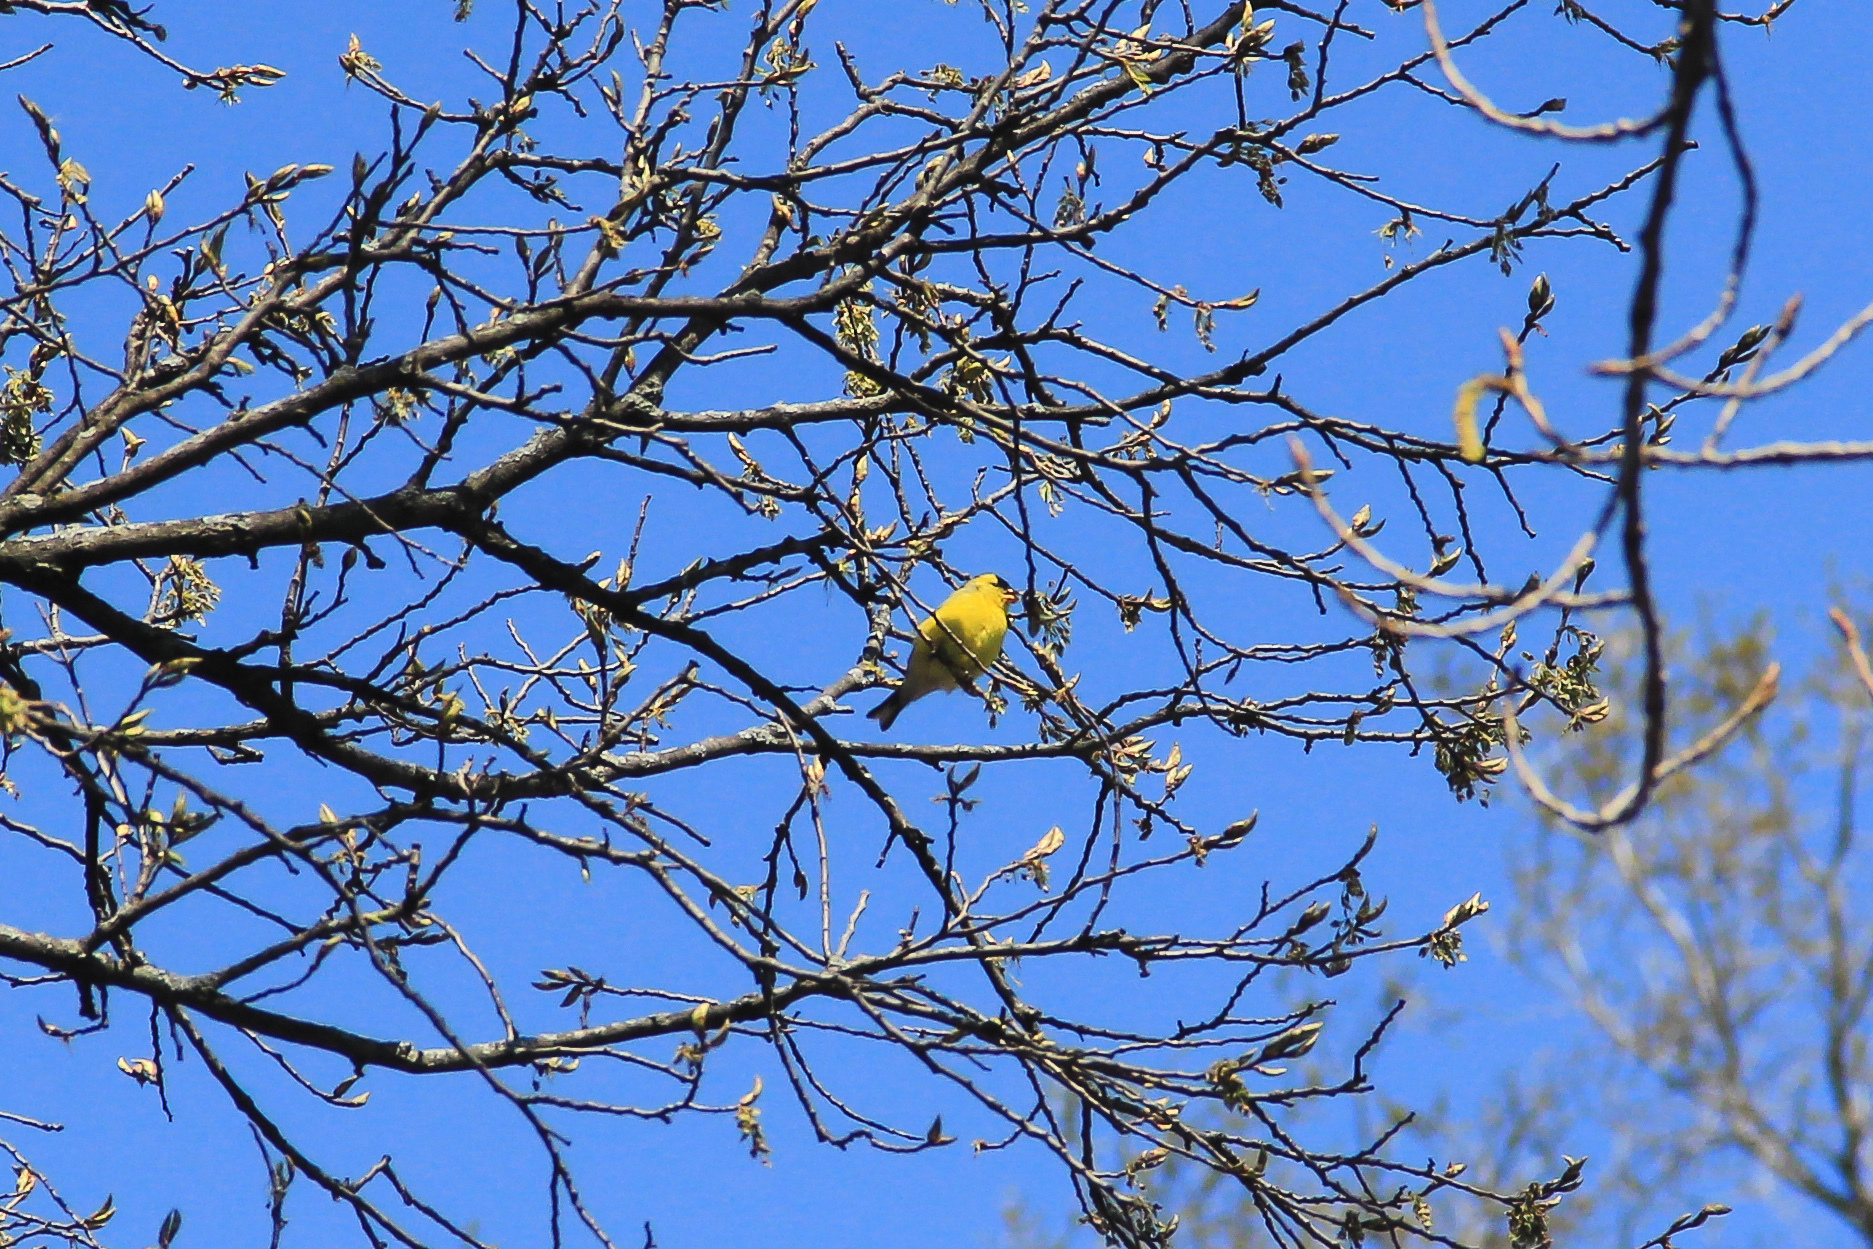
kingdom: Animalia
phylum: Chordata
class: Aves
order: Passeriformes
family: Fringillidae
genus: Spinus
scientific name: Spinus tristis
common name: American goldfinch
